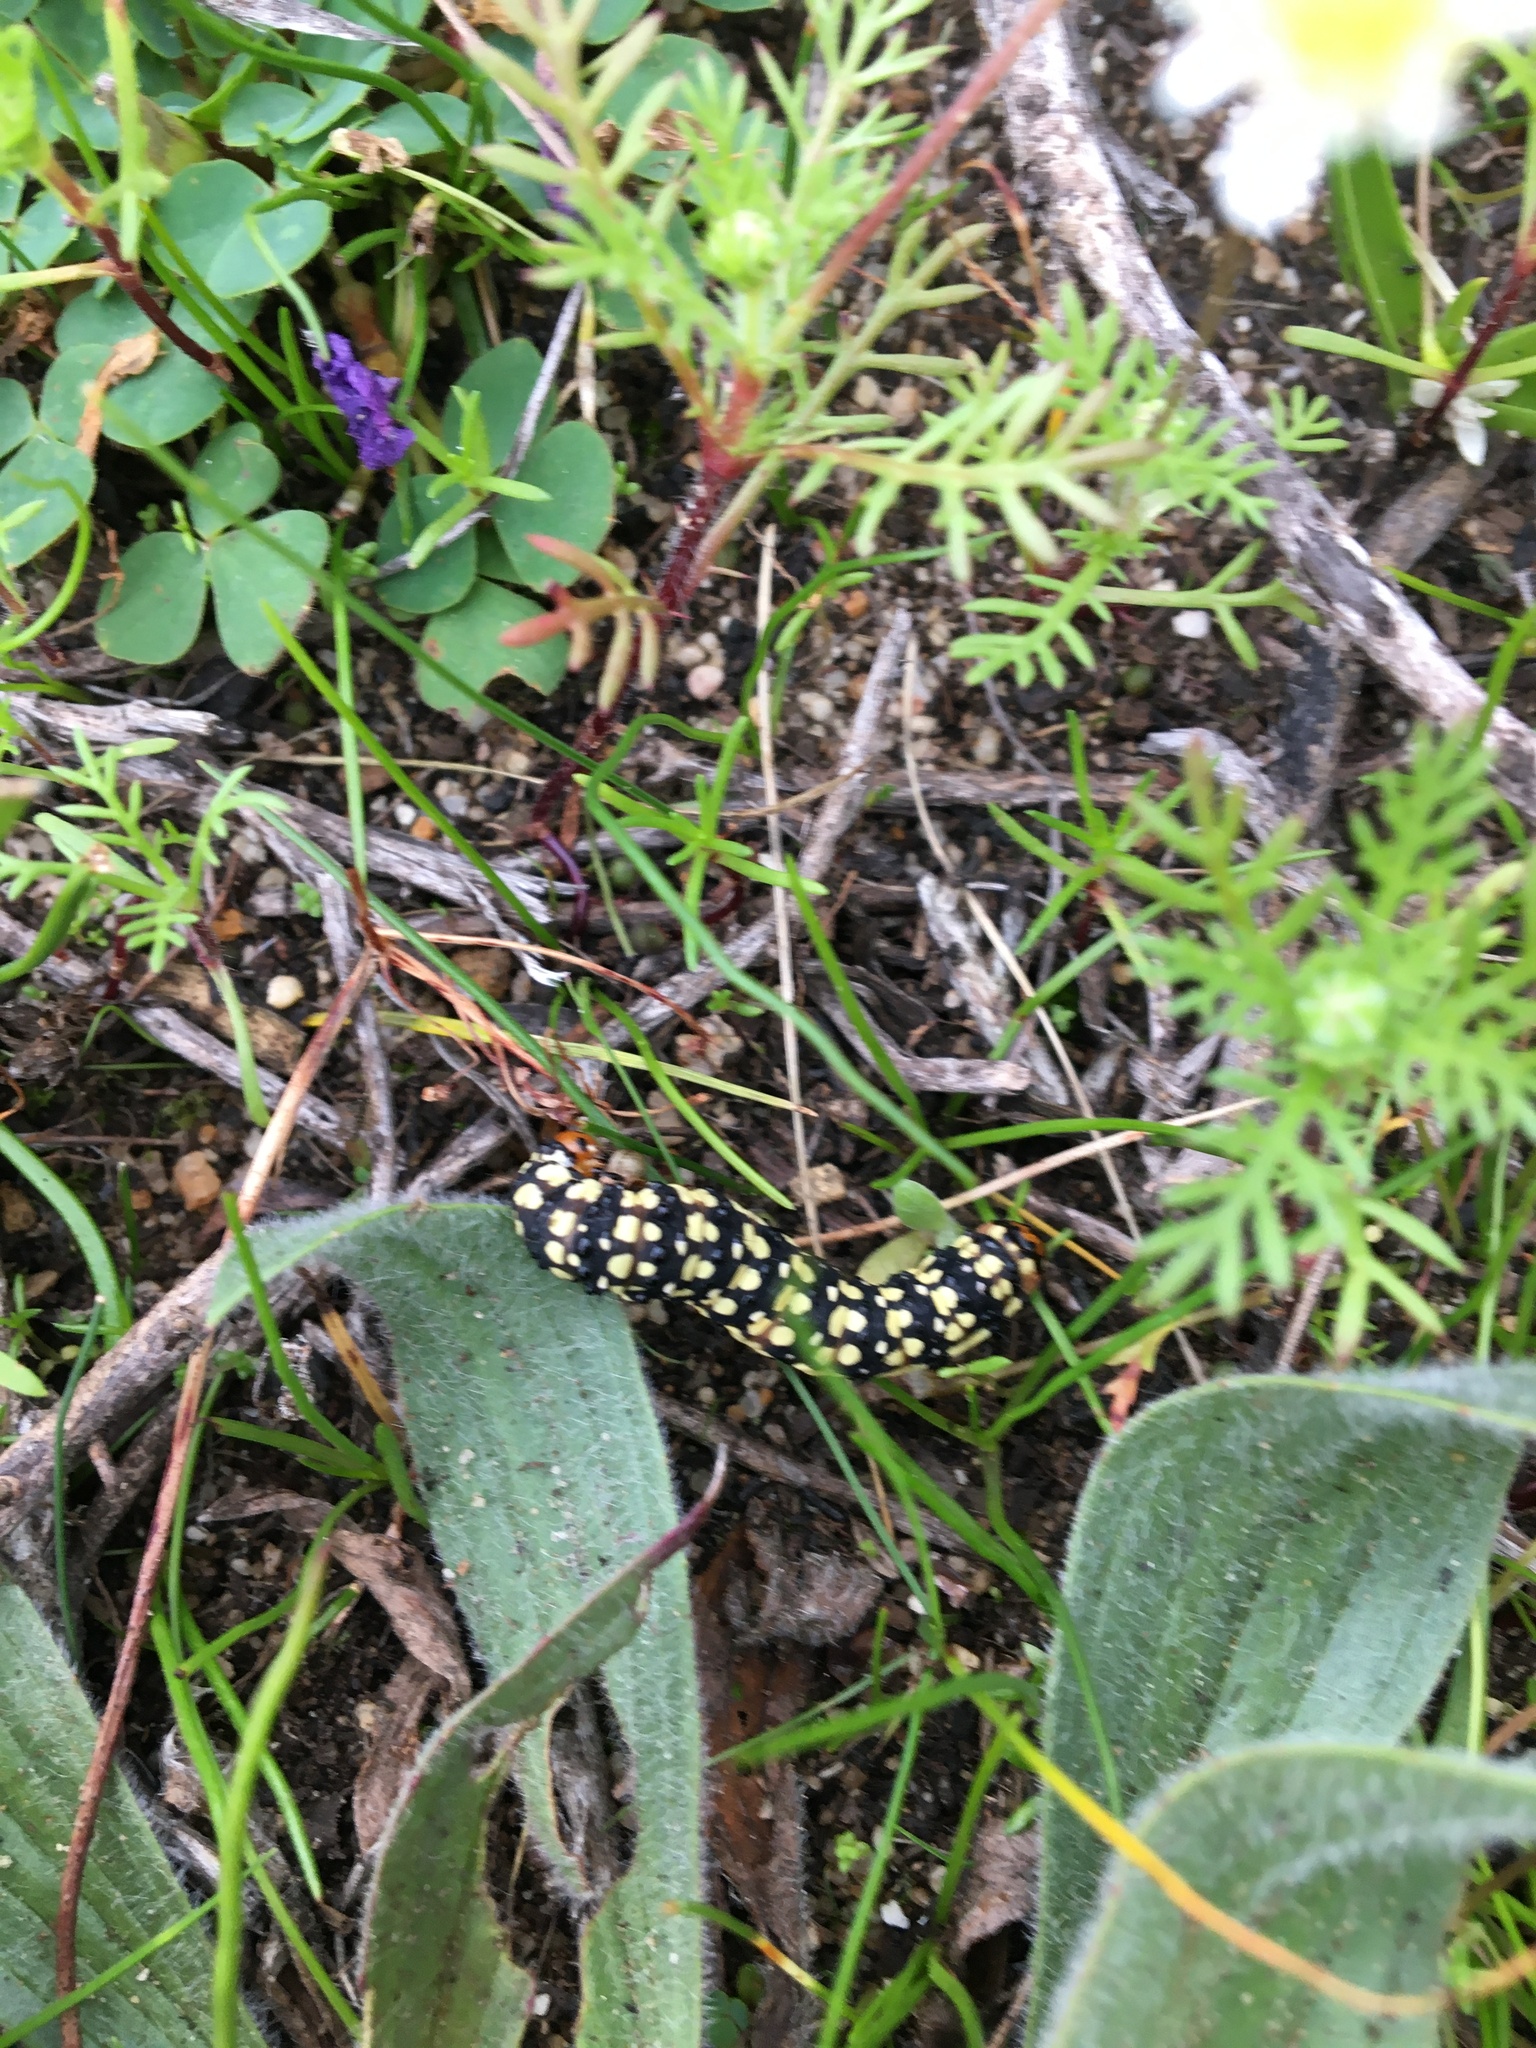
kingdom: Animalia
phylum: Arthropoda
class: Insecta
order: Lepidoptera
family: Noctuidae
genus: Brithys
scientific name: Brithys crini
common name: Kew arches
